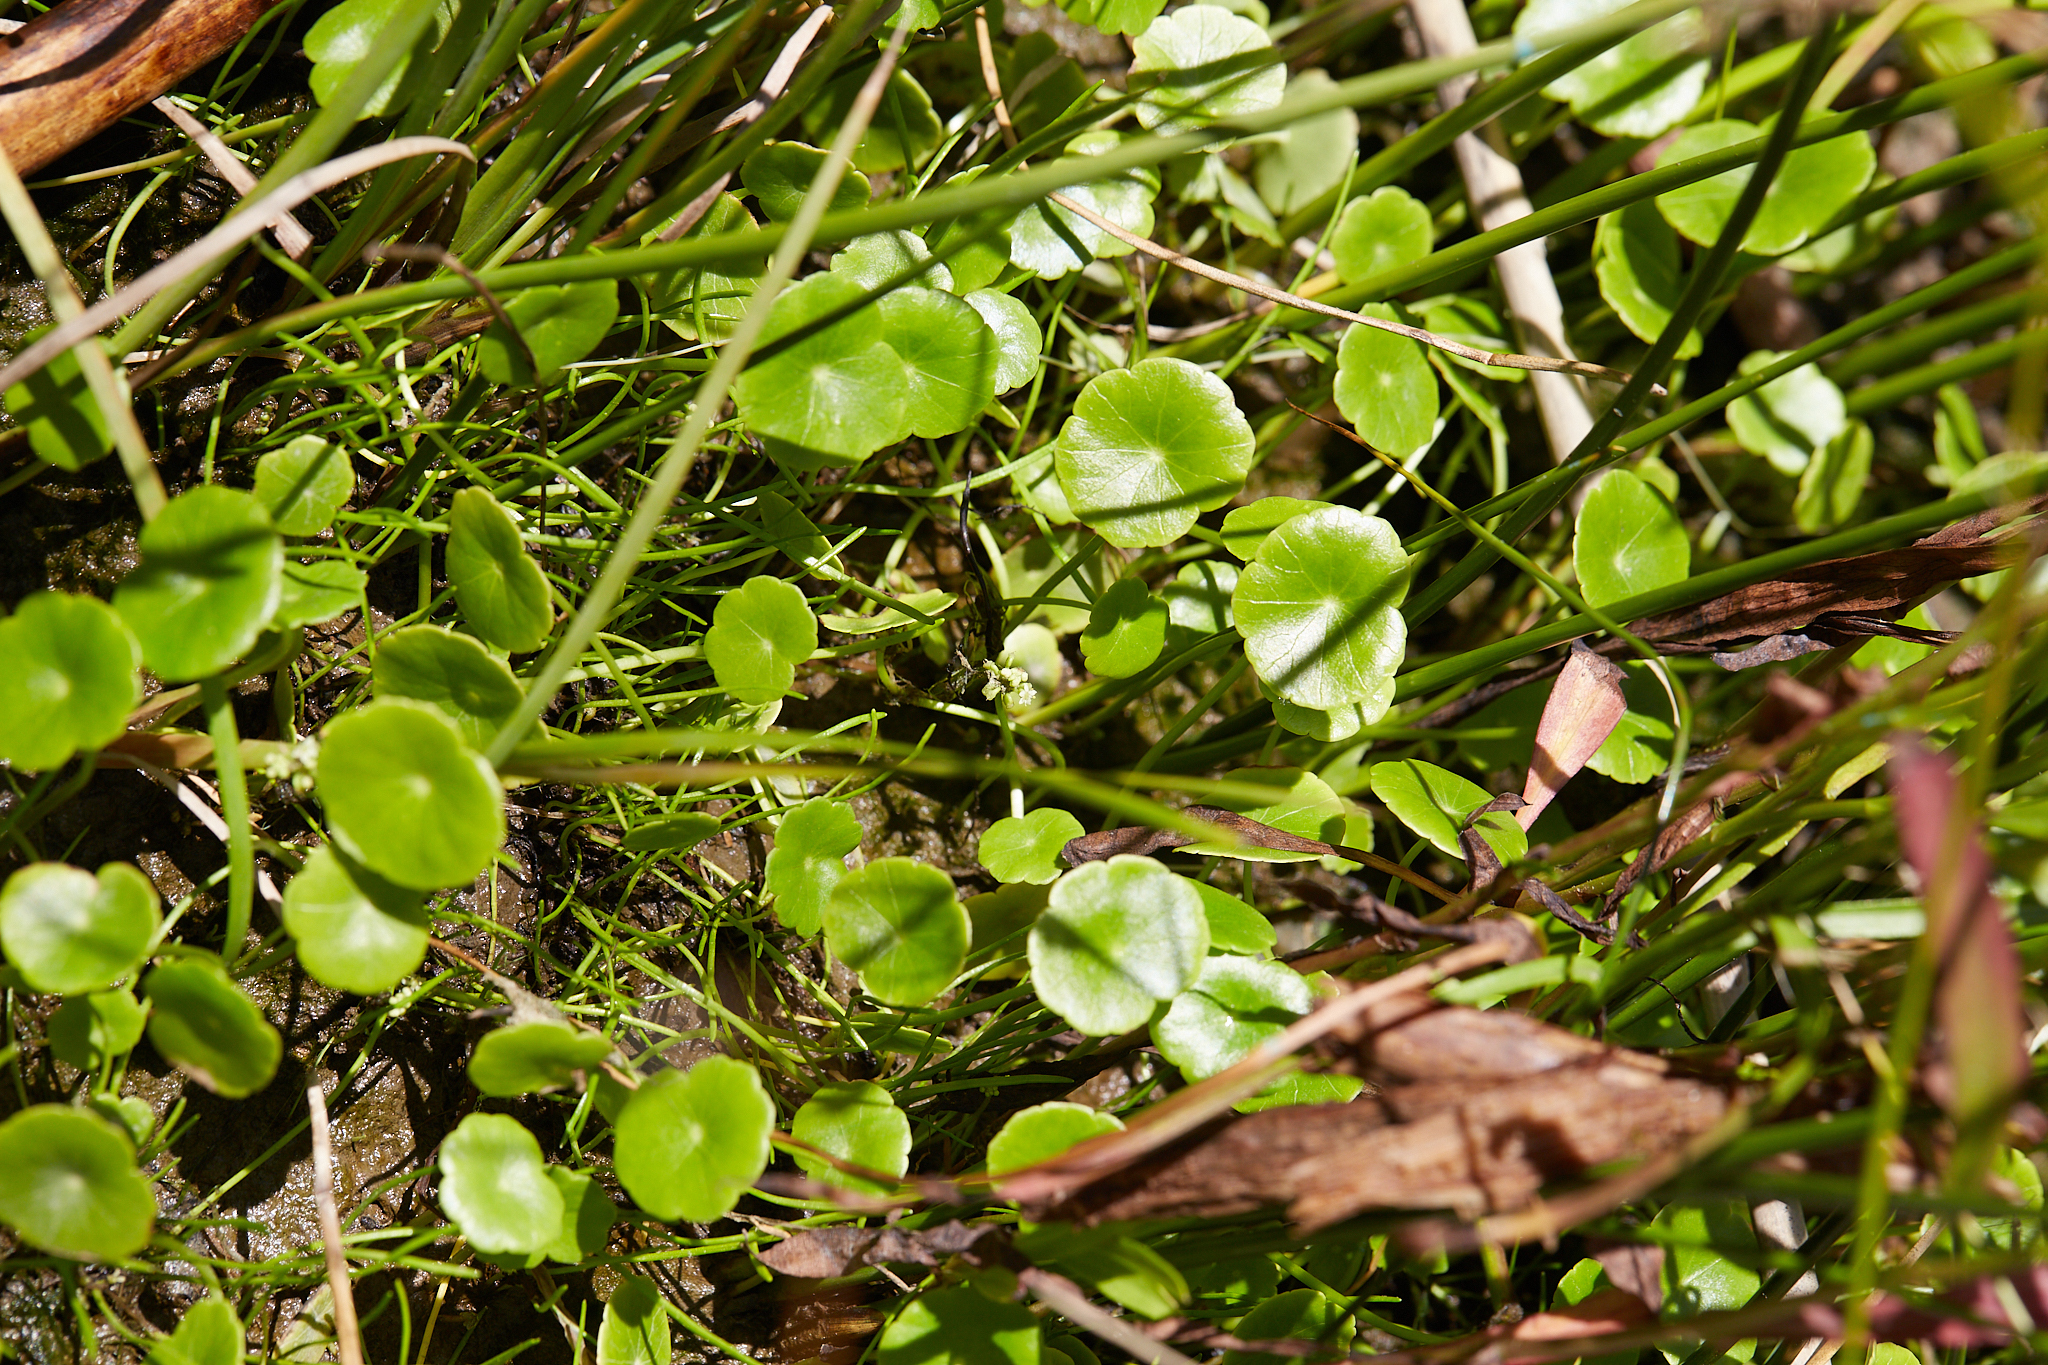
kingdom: Plantae
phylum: Tracheophyta
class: Magnoliopsida
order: Apiales
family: Araliaceae
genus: Hydrocotyle
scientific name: Hydrocotyle verticillata
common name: Whorled marshpennywort
